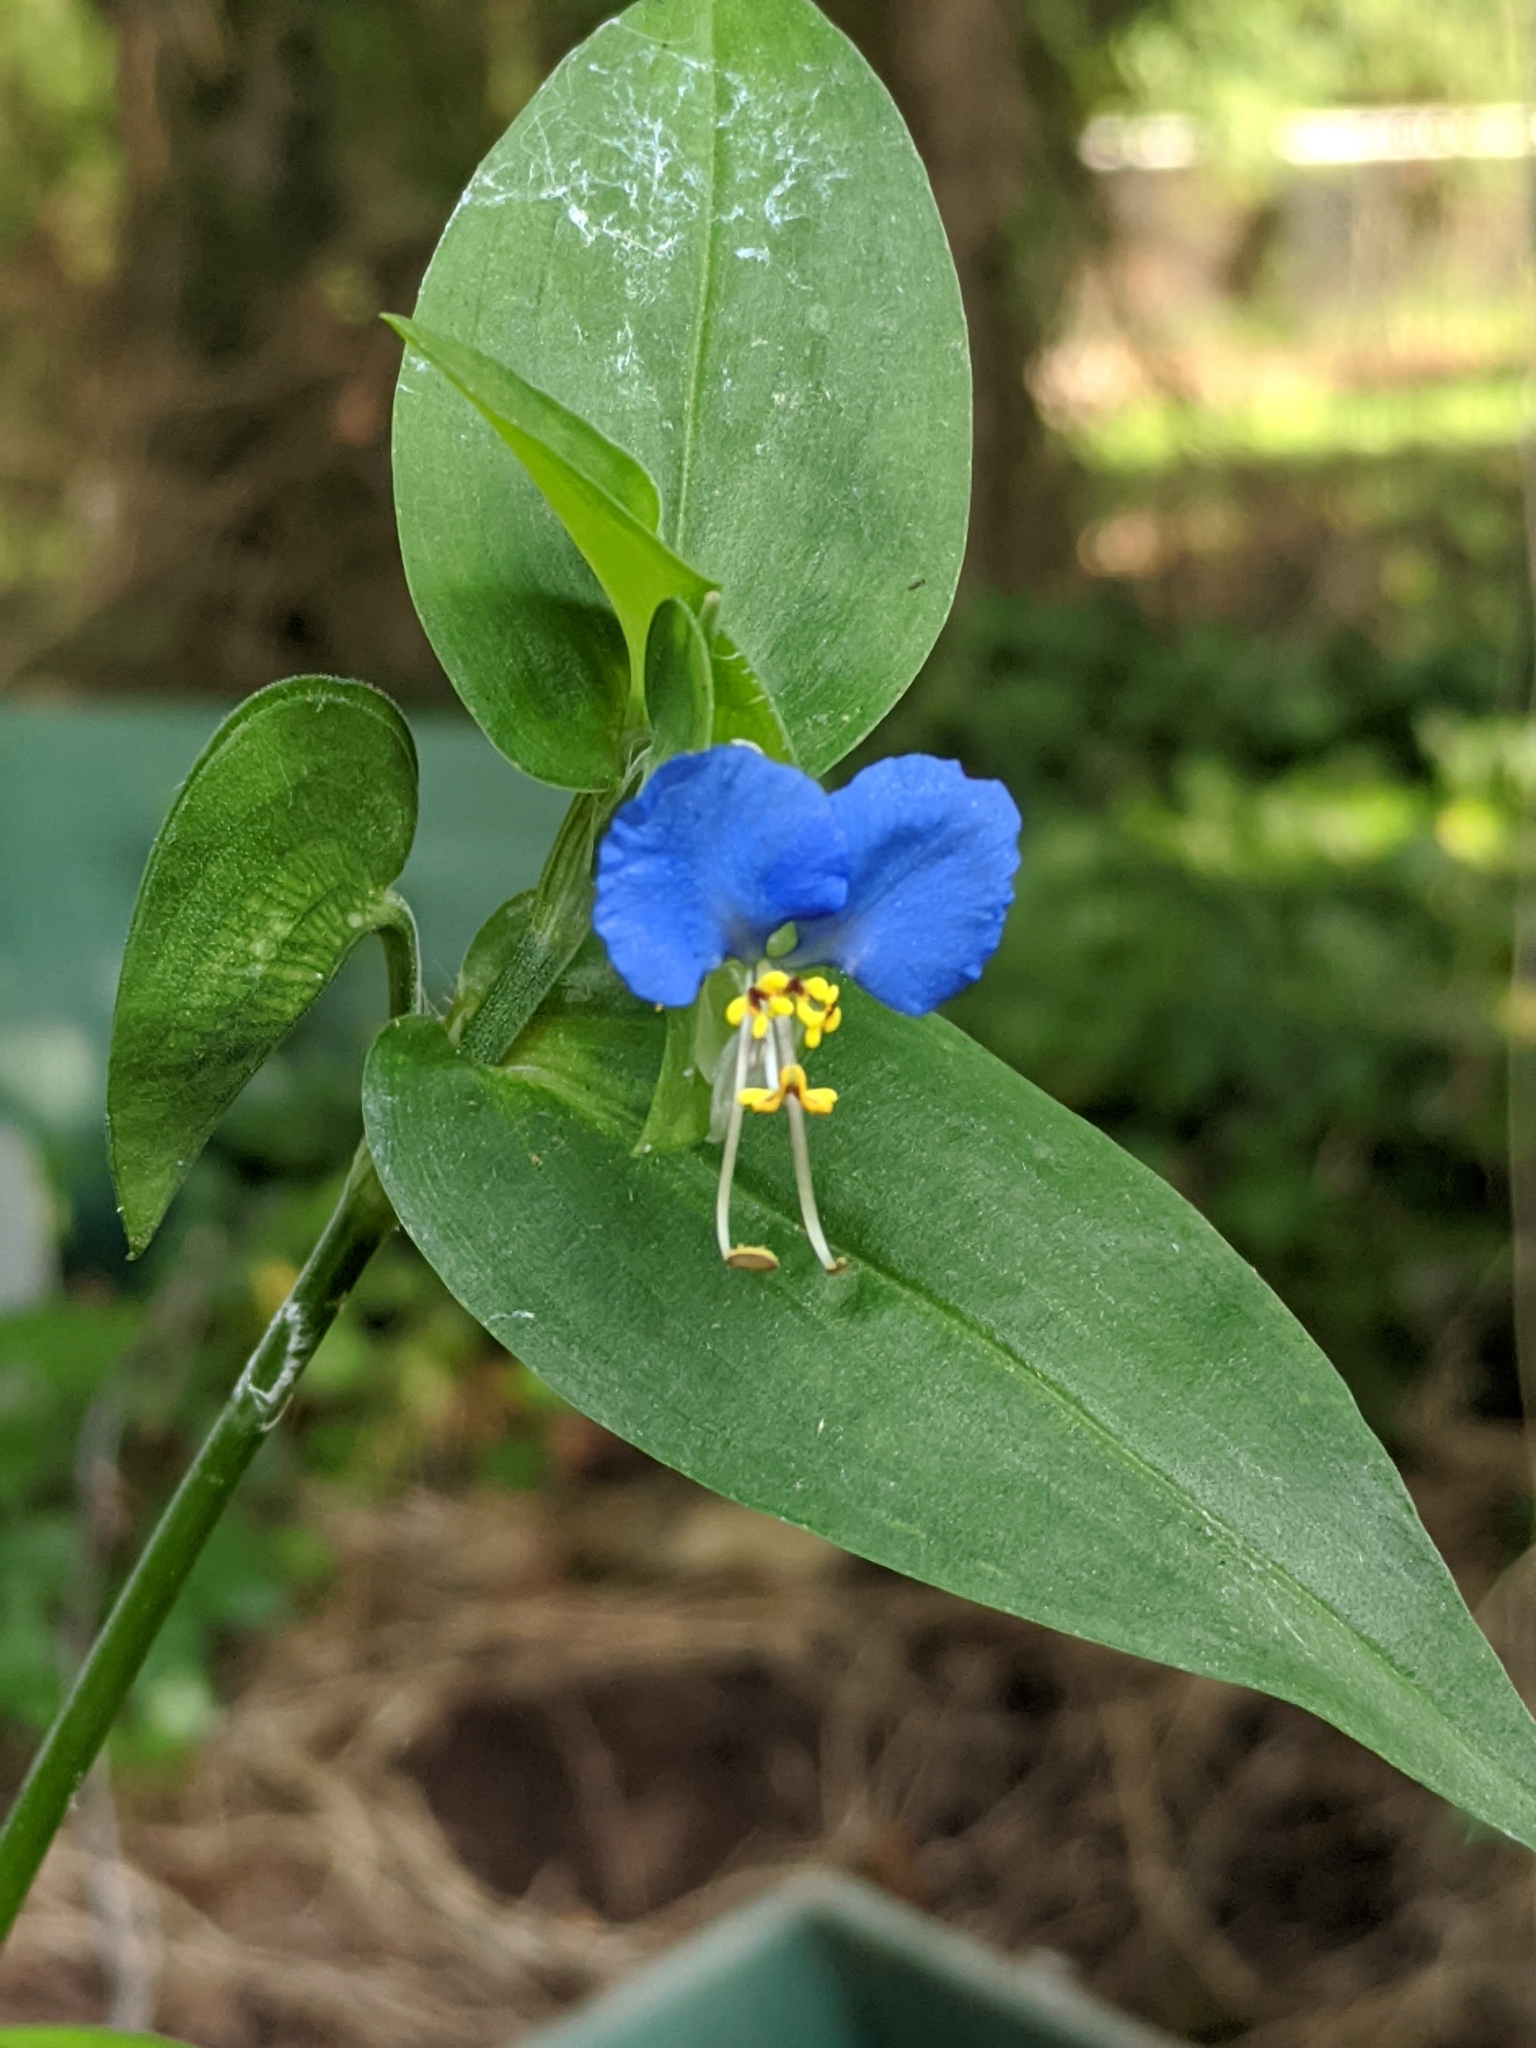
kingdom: Plantae
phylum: Tracheophyta
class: Liliopsida
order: Commelinales
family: Commelinaceae
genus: Commelina
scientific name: Commelina communis
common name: Asiatic dayflower
